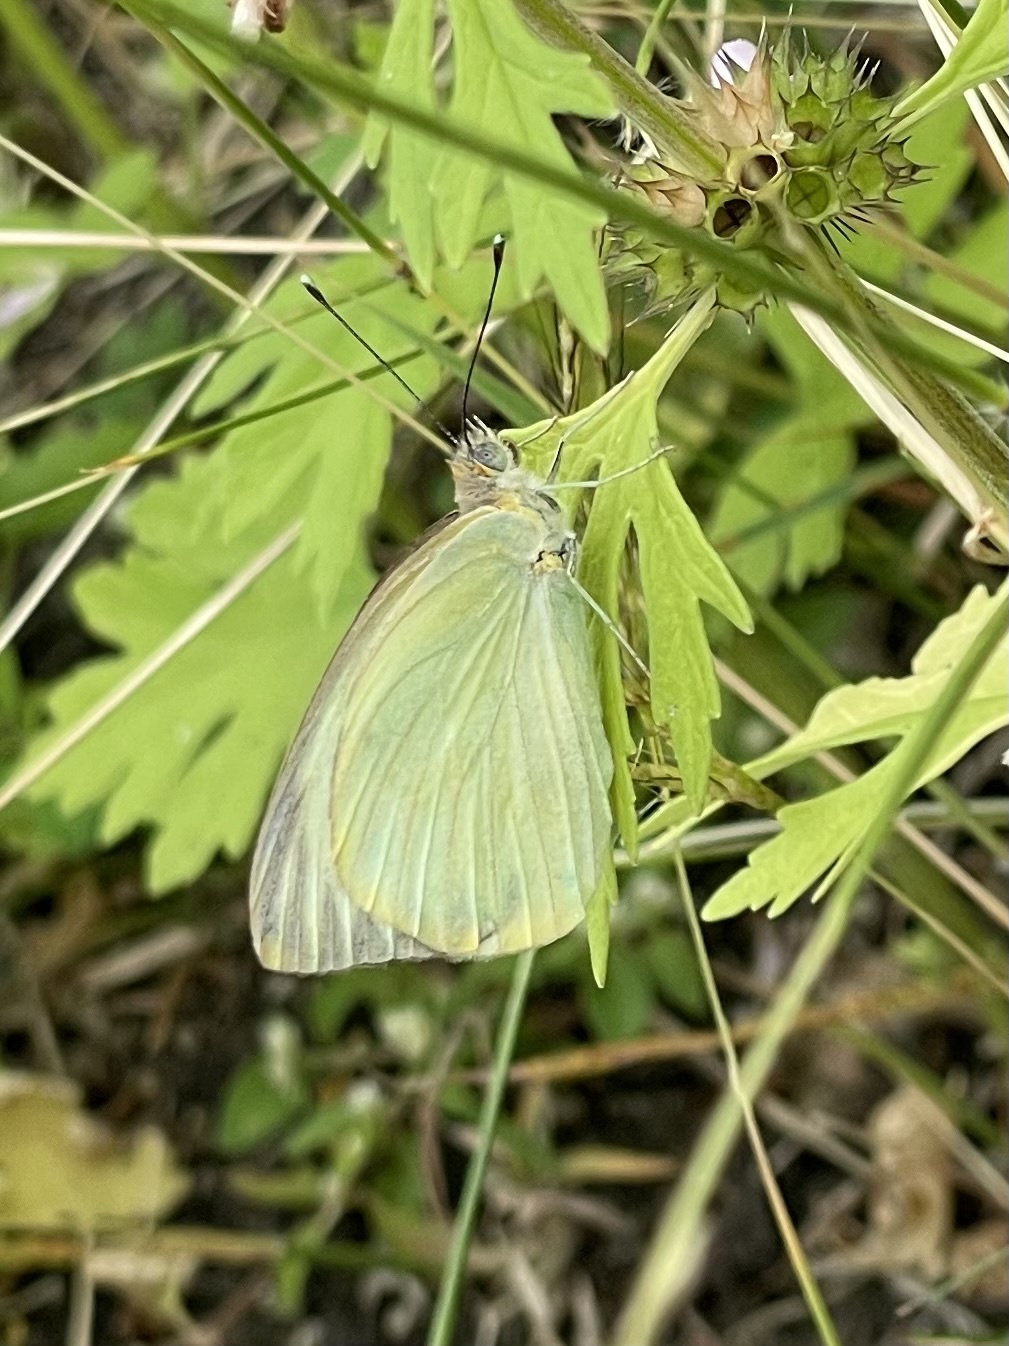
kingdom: Animalia
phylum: Arthropoda
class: Insecta
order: Lepidoptera
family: Pieridae
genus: Ascia
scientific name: Ascia monuste
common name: Great southern white
